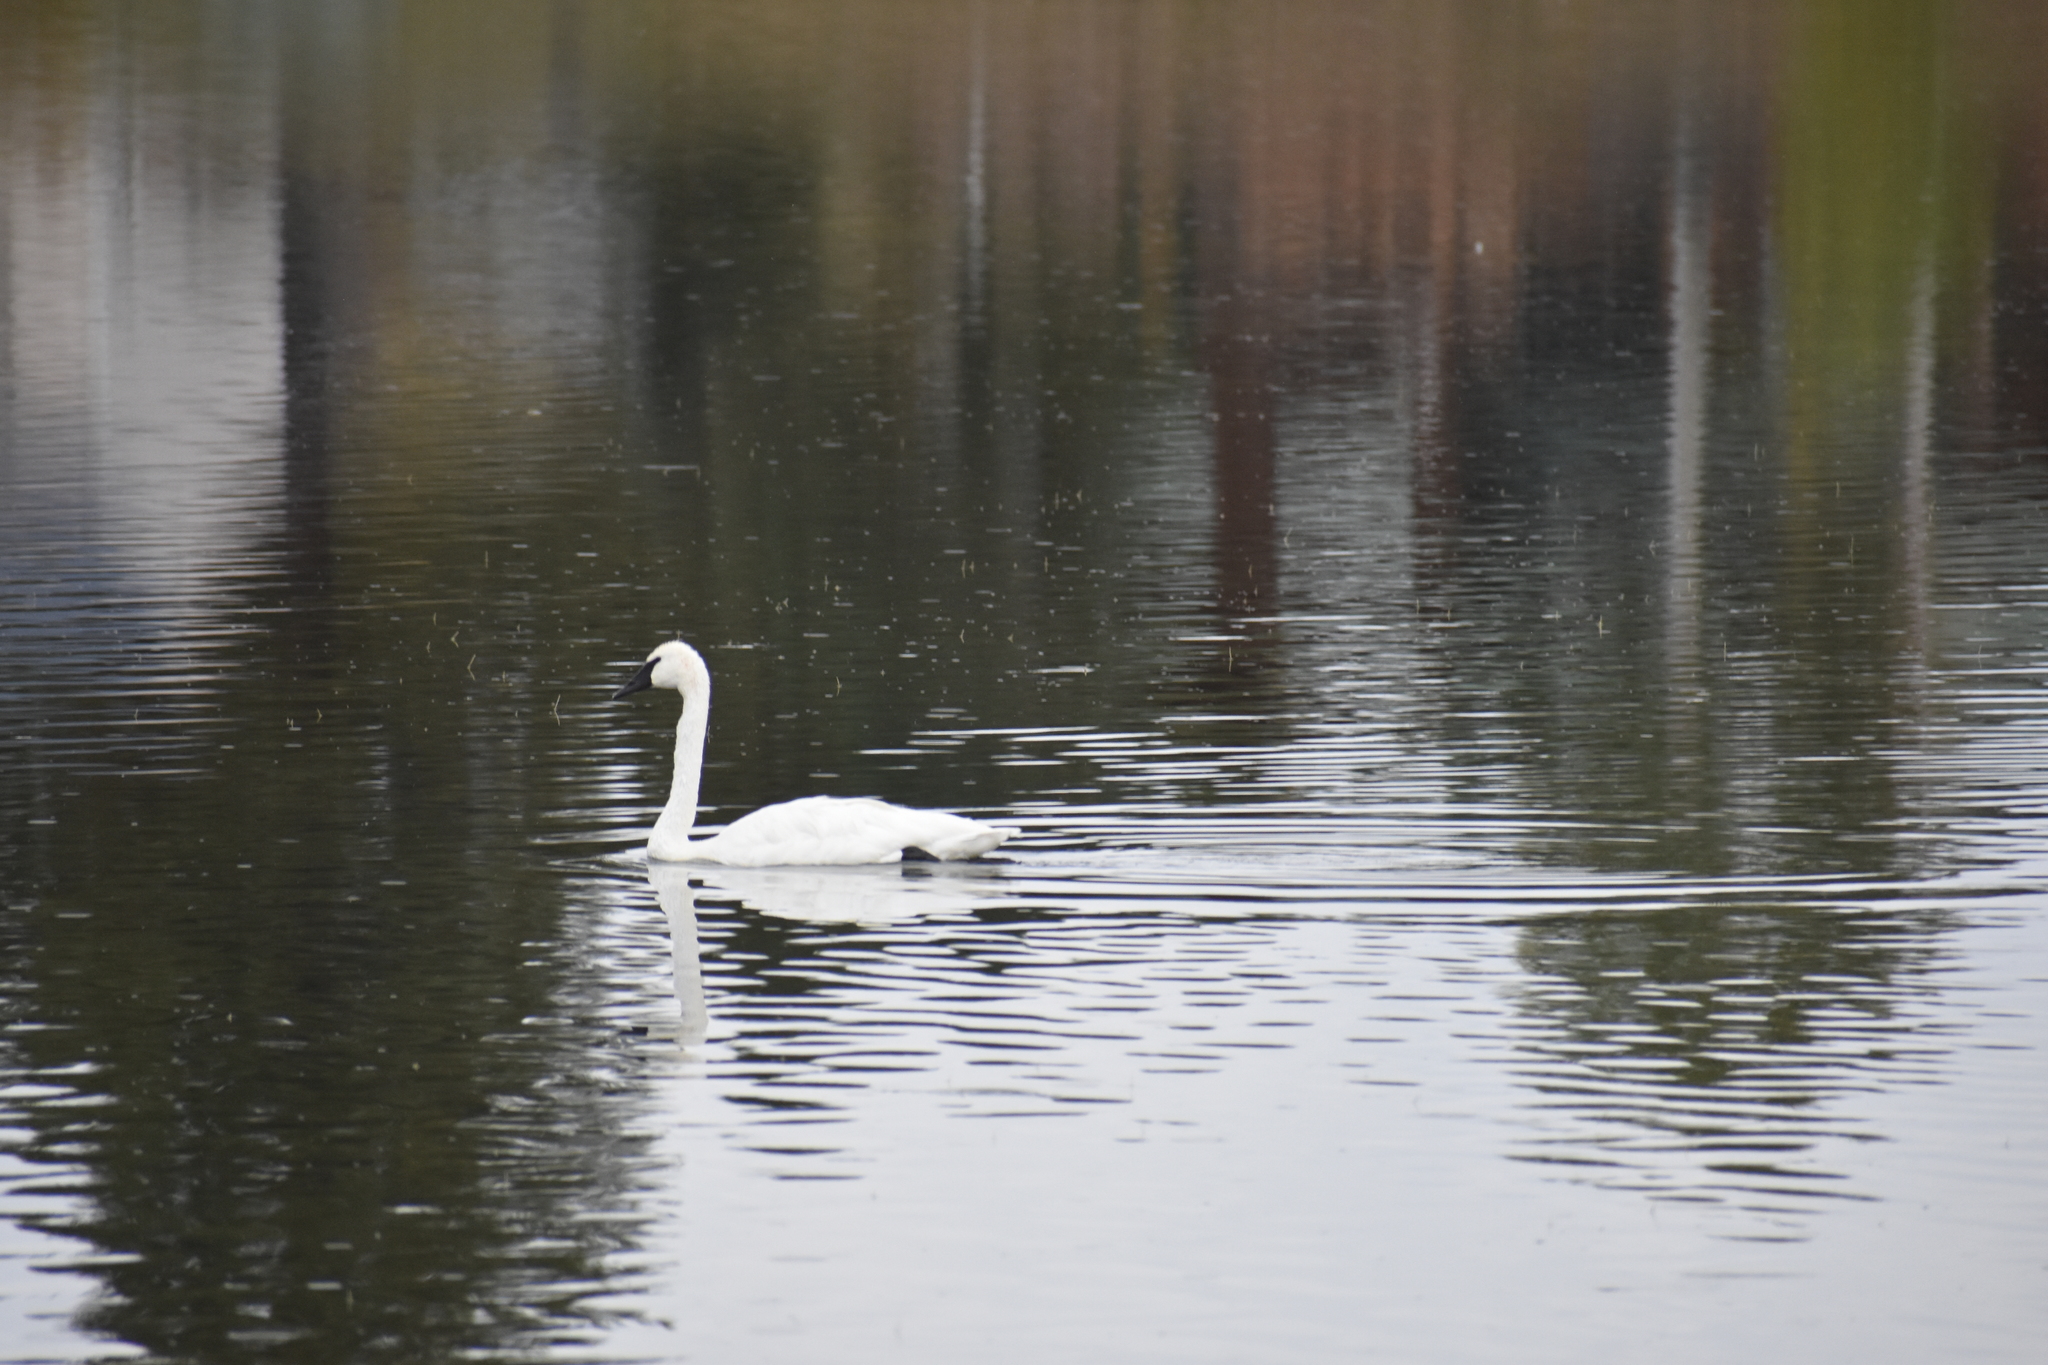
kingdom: Animalia
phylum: Chordata
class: Aves
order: Anseriformes
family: Anatidae
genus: Cygnus
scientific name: Cygnus buccinator
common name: Trumpeter swan
